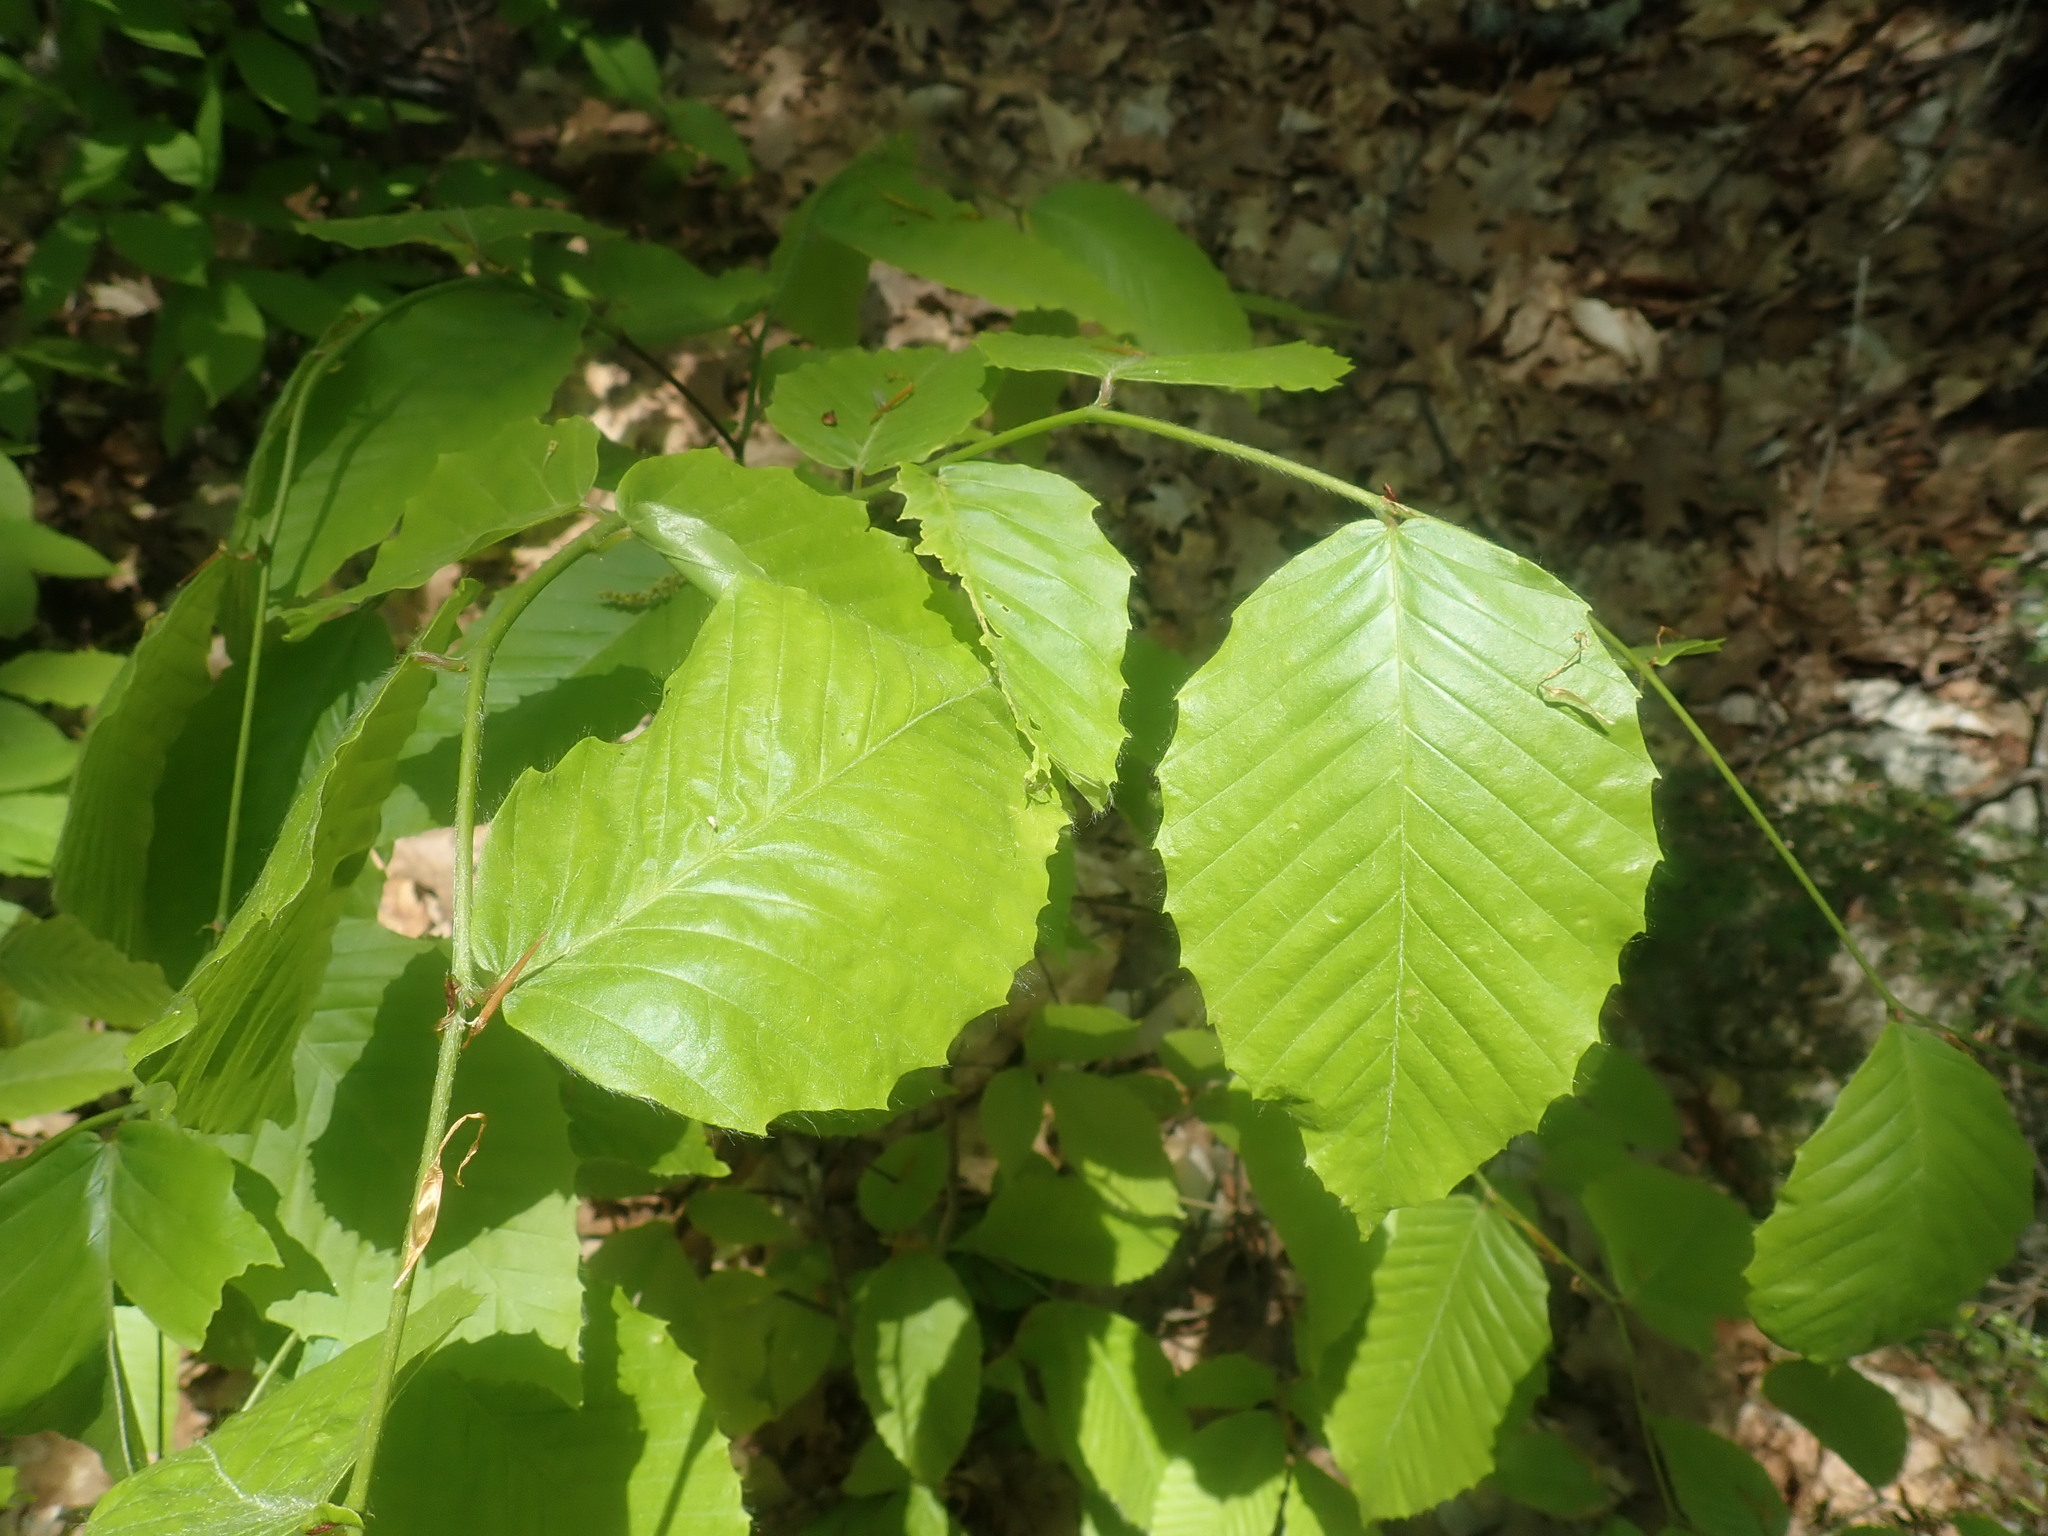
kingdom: Plantae
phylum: Tracheophyta
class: Magnoliopsida
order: Fagales
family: Fagaceae
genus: Fagus
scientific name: Fagus grandifolia
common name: American beech
